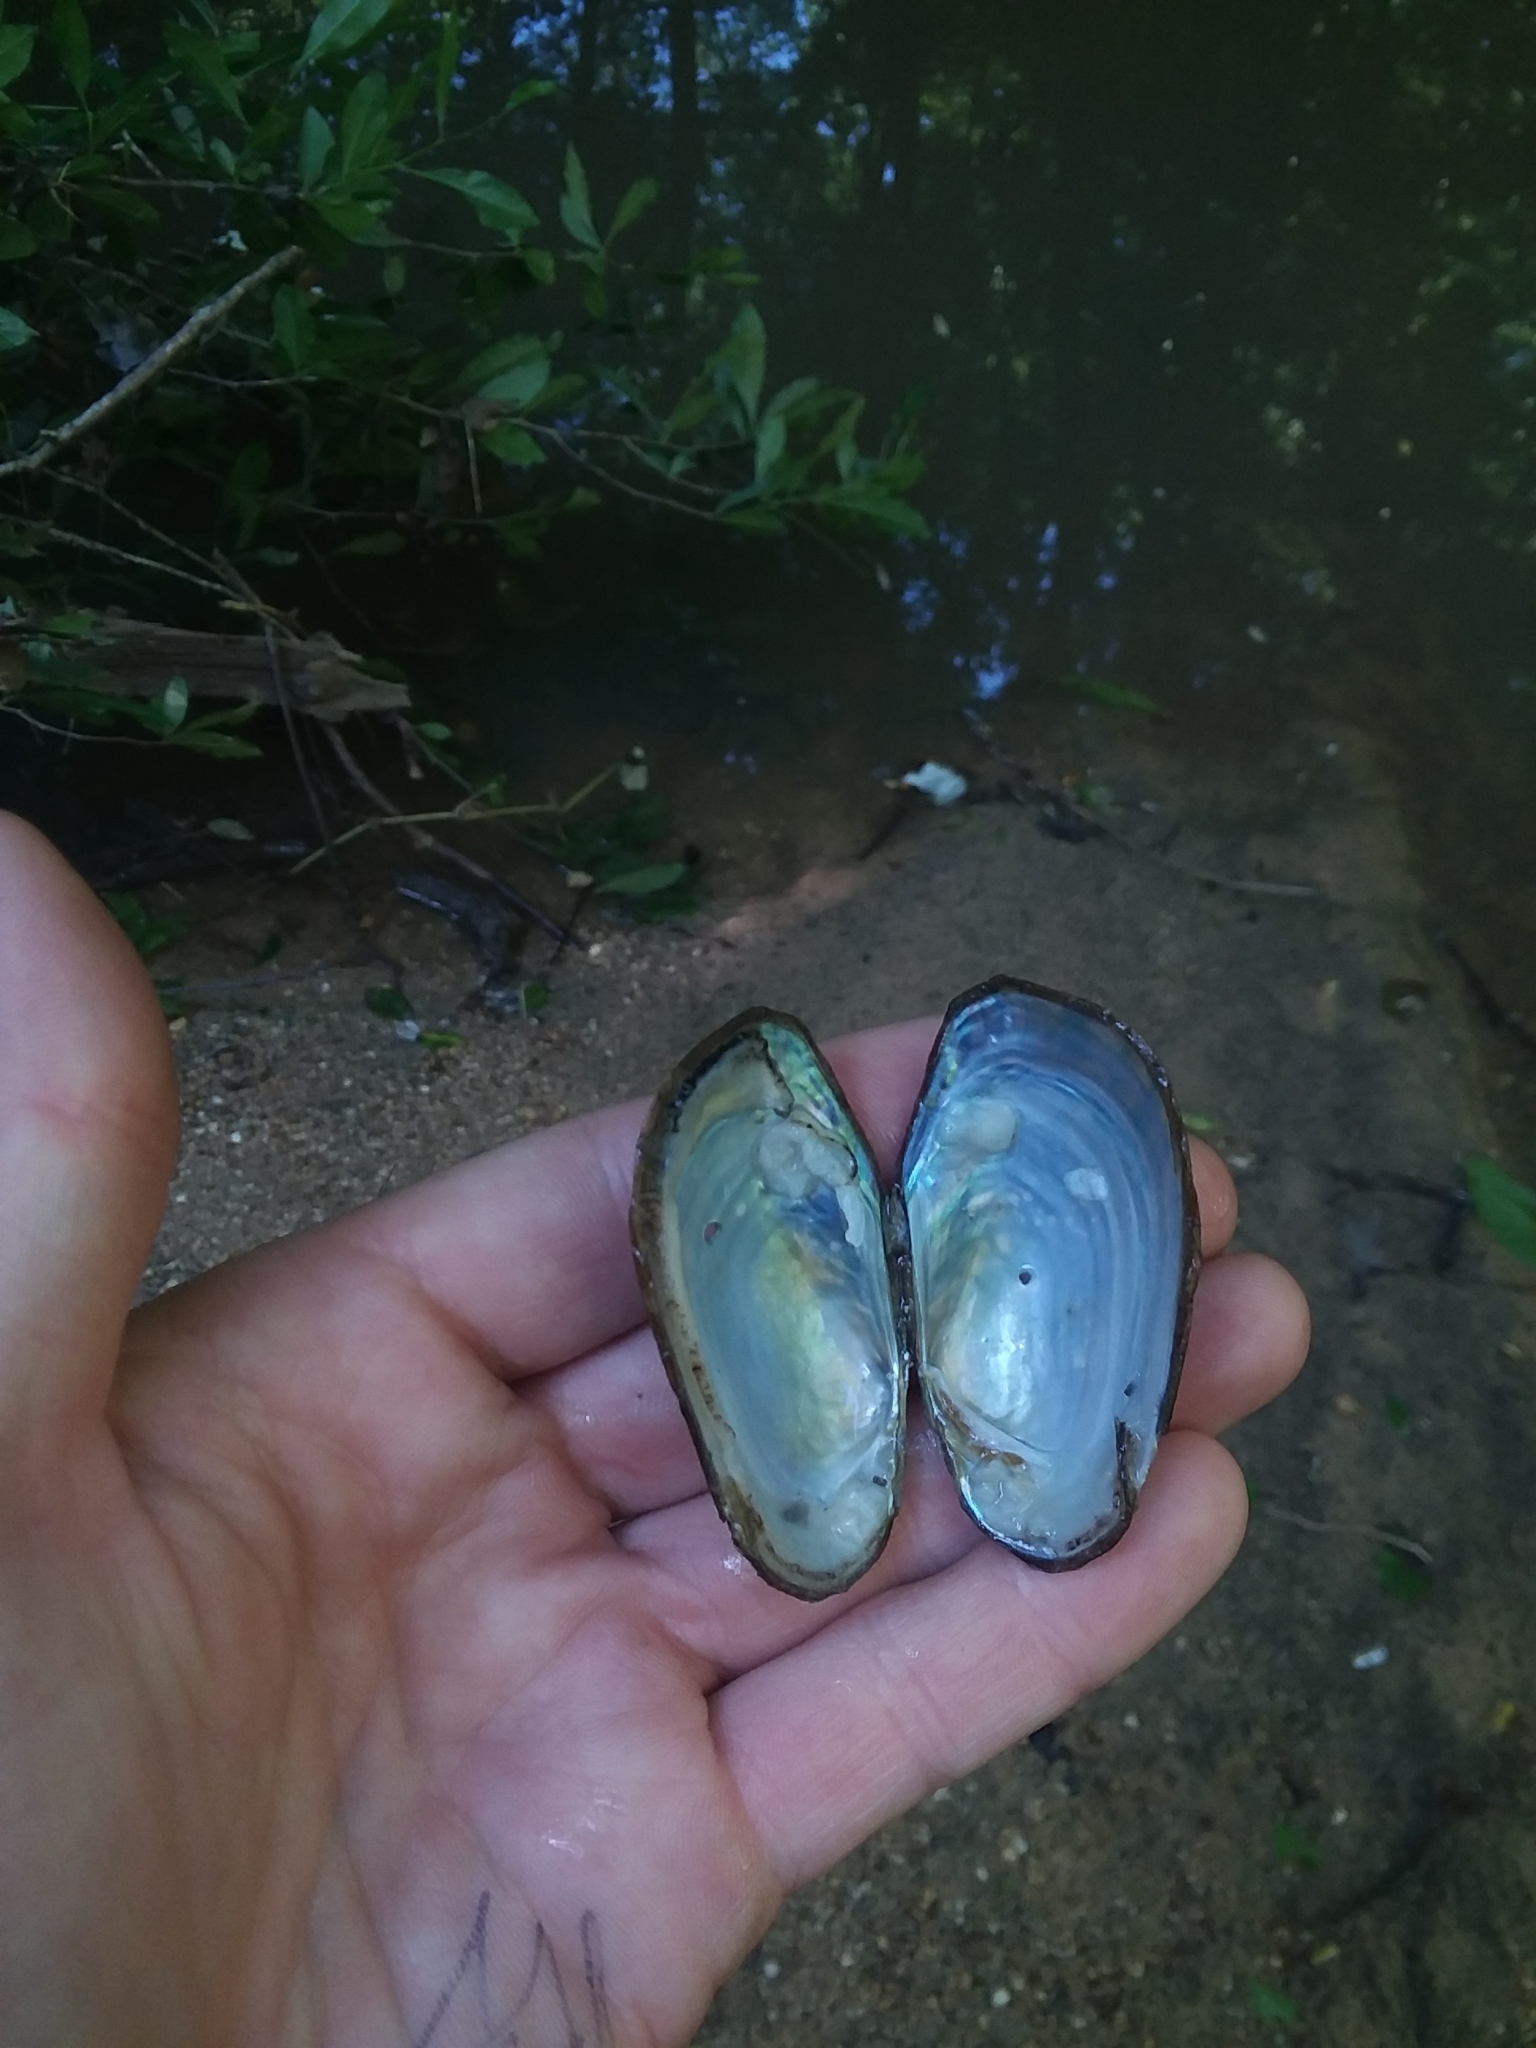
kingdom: Animalia
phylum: Mollusca
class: Bivalvia
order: Unionida
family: Unionidae
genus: Villosa
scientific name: Villosa vibex
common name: Southern rainbow
